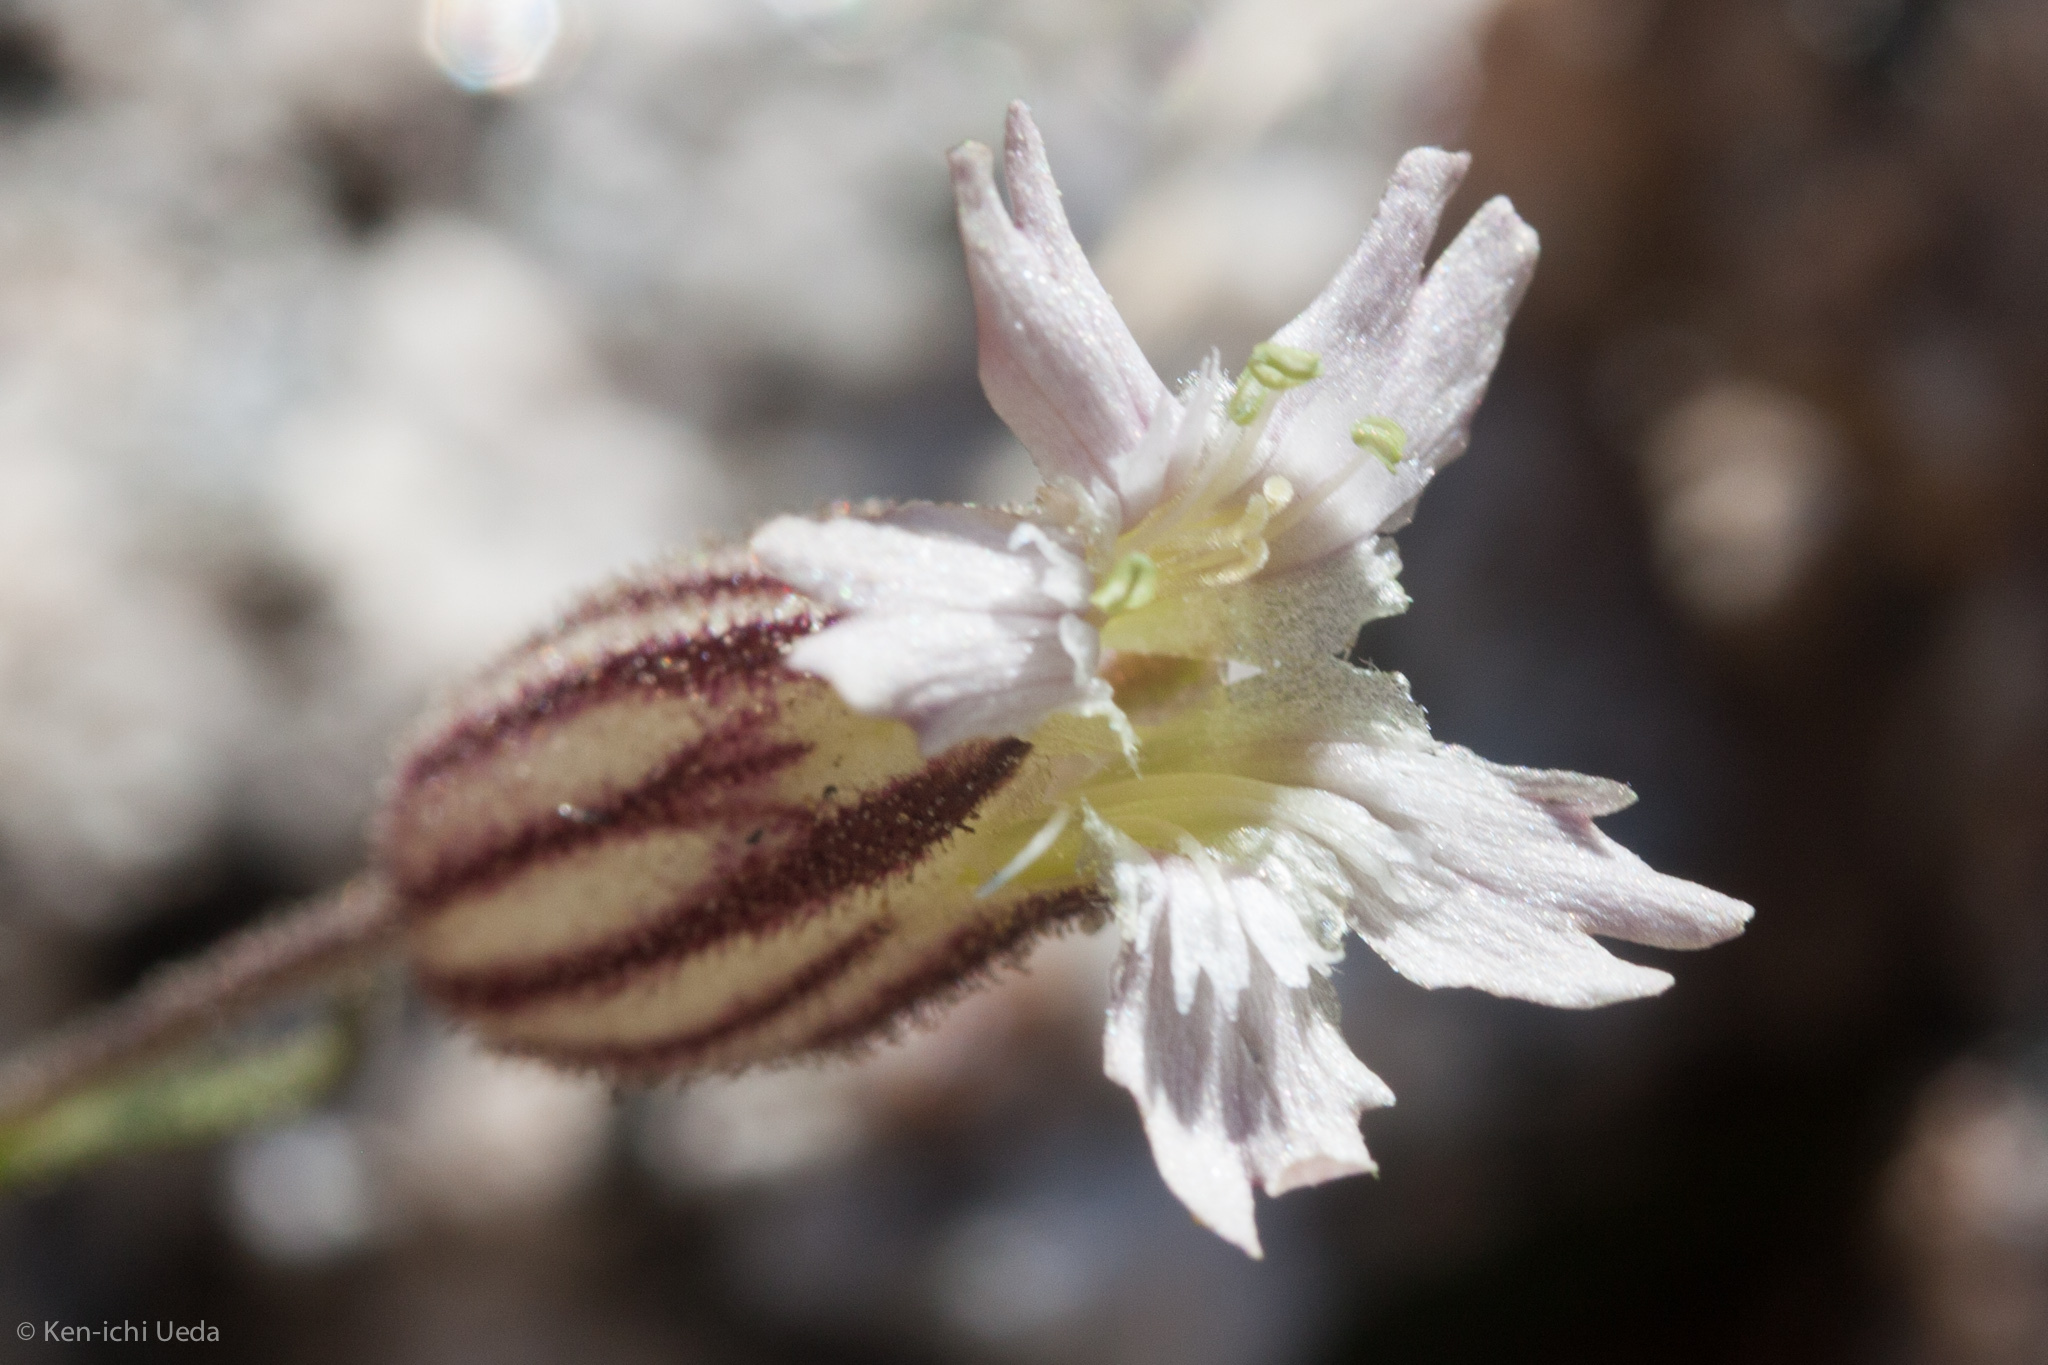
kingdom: Plantae
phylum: Tracheophyta
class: Magnoliopsida
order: Caryophyllales
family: Caryophyllaceae
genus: Silene
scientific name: Silene sargentii
